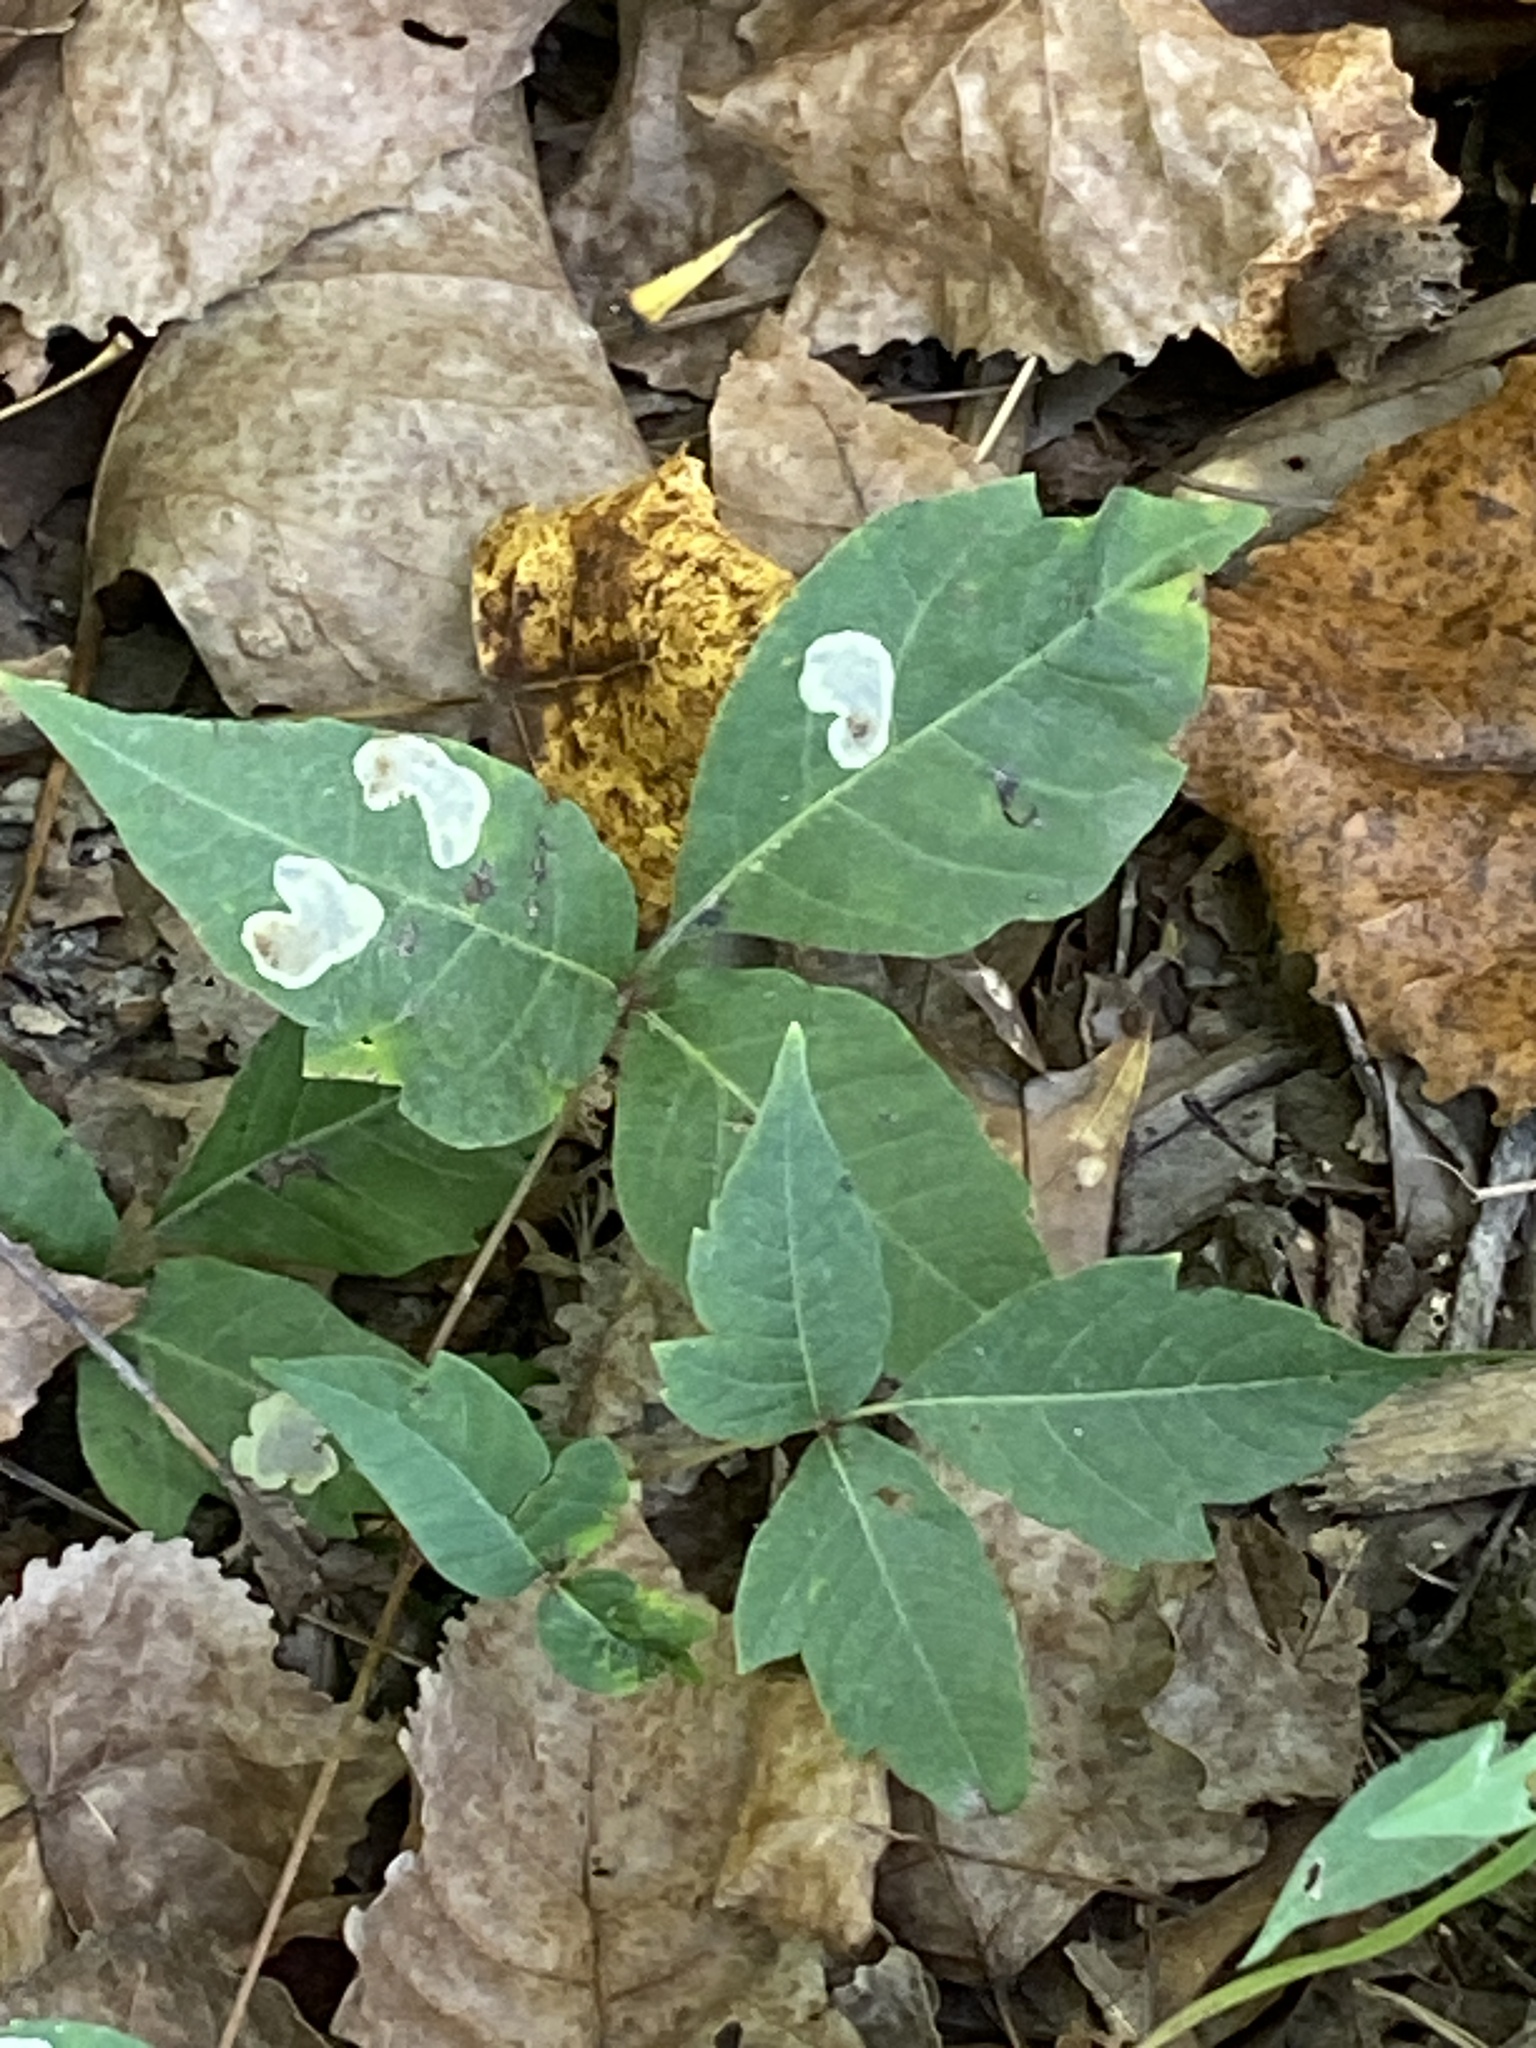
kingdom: Animalia
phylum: Arthropoda
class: Insecta
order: Lepidoptera
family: Gracillariidae
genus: Cameraria
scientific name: Cameraria guttifinitella
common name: Poison ivy leaf-miner moth
